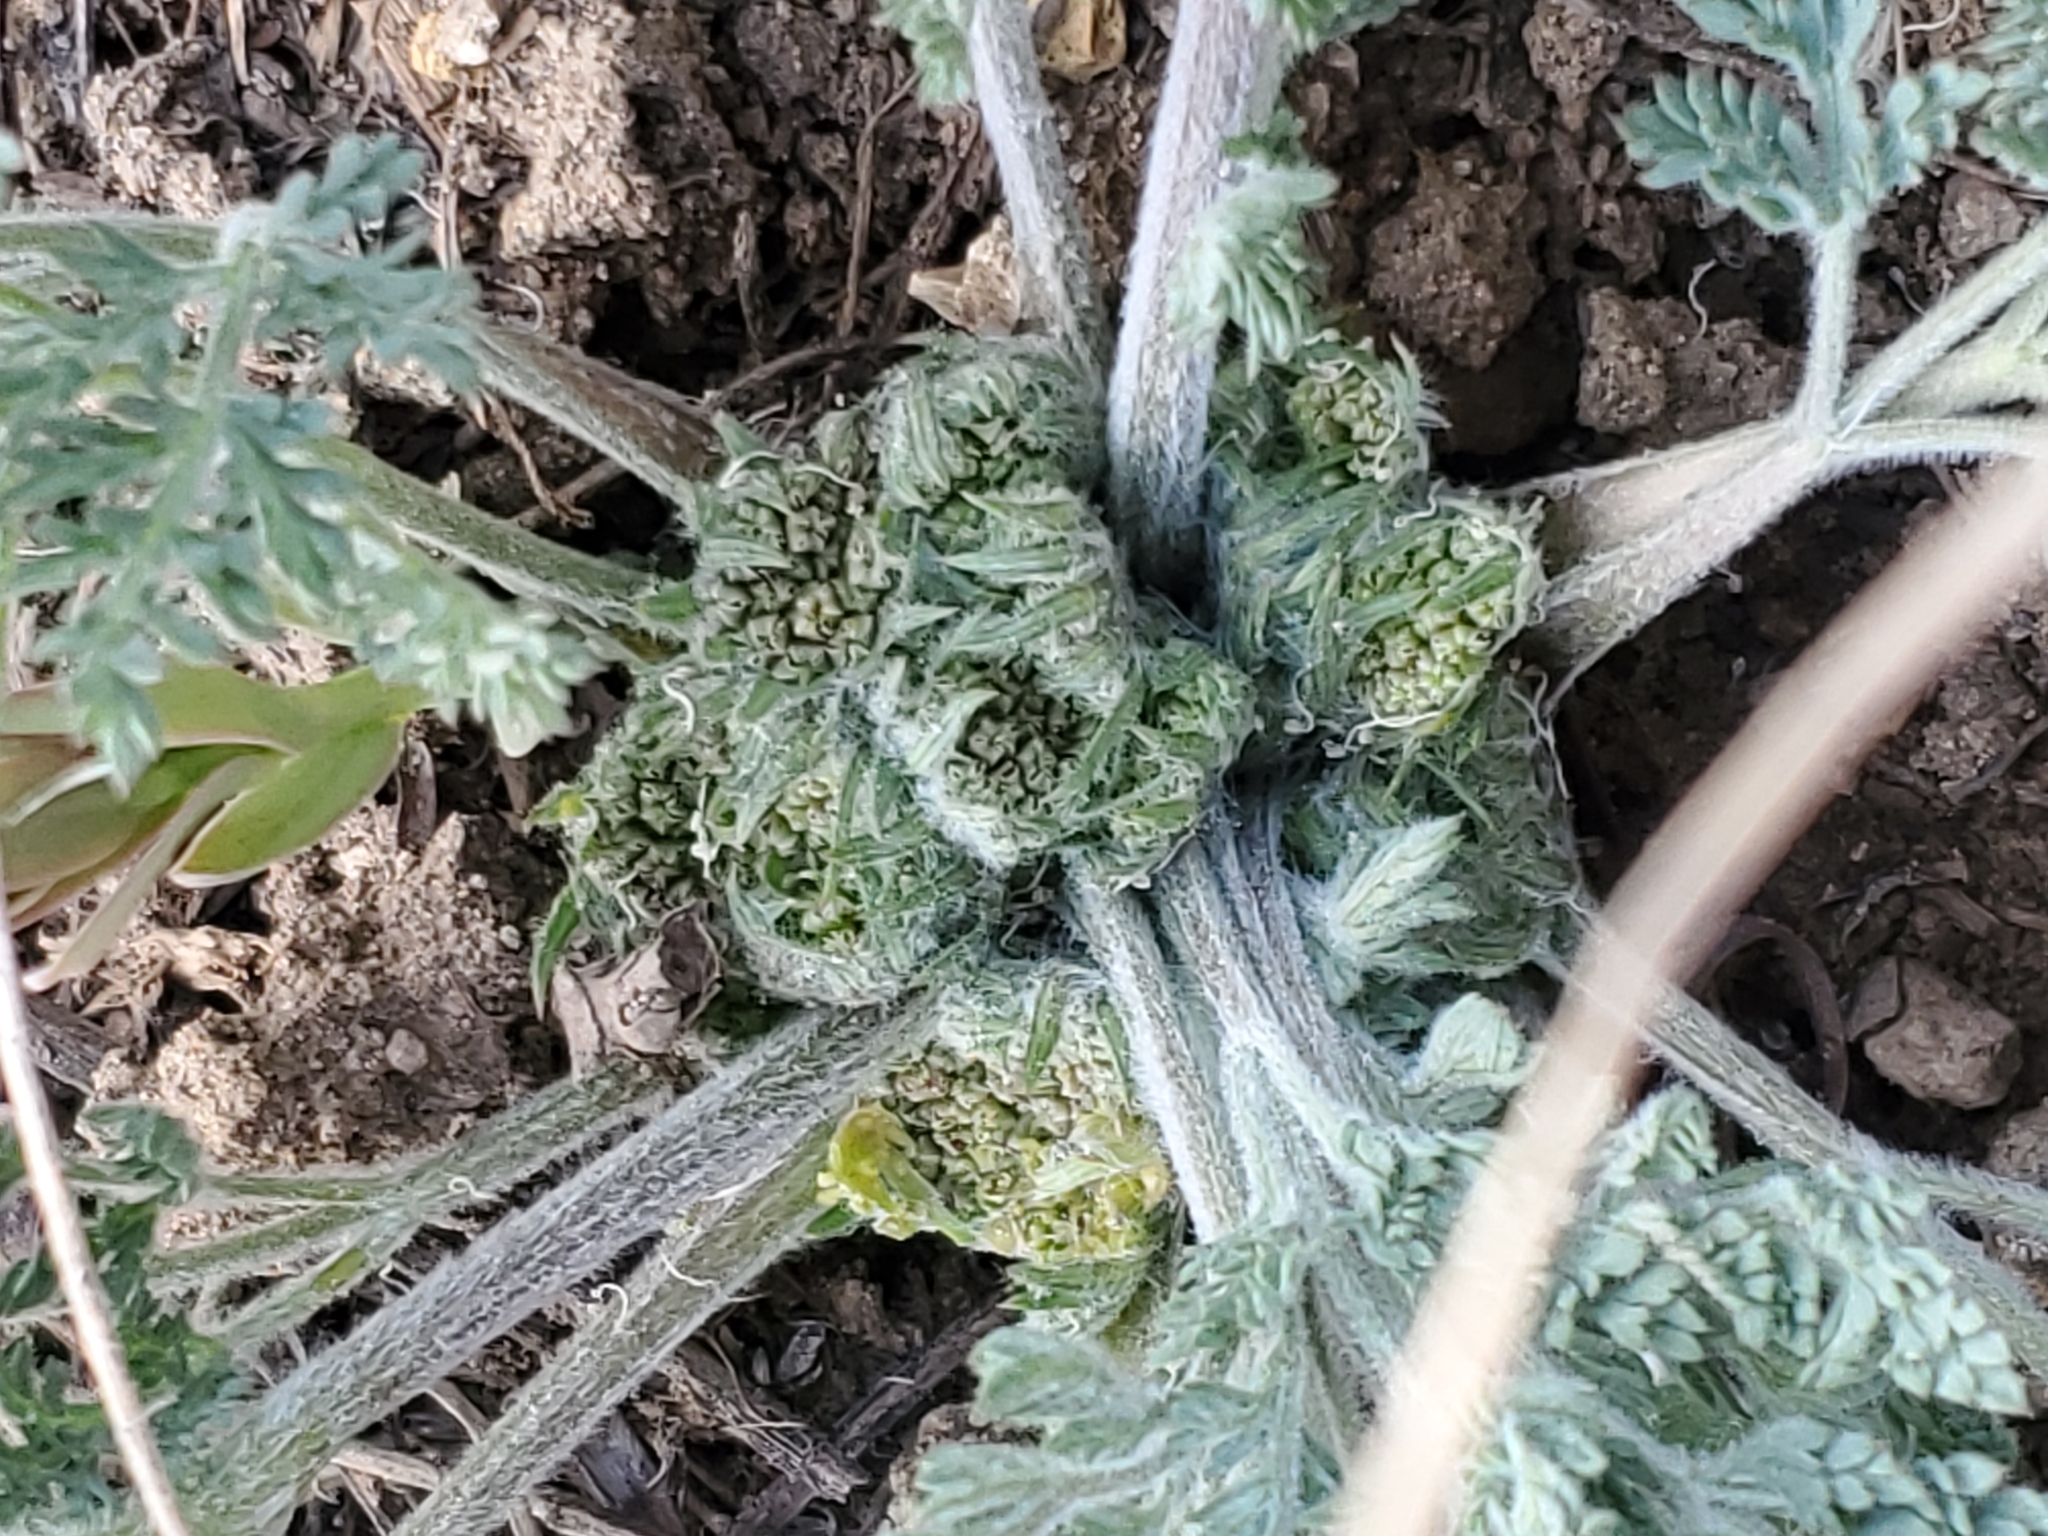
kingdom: Plantae
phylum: Tracheophyta
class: Magnoliopsida
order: Apiales
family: Apiaceae
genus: Lomatium
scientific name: Lomatium macrocarpum
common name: Big-seed biscuitroot
